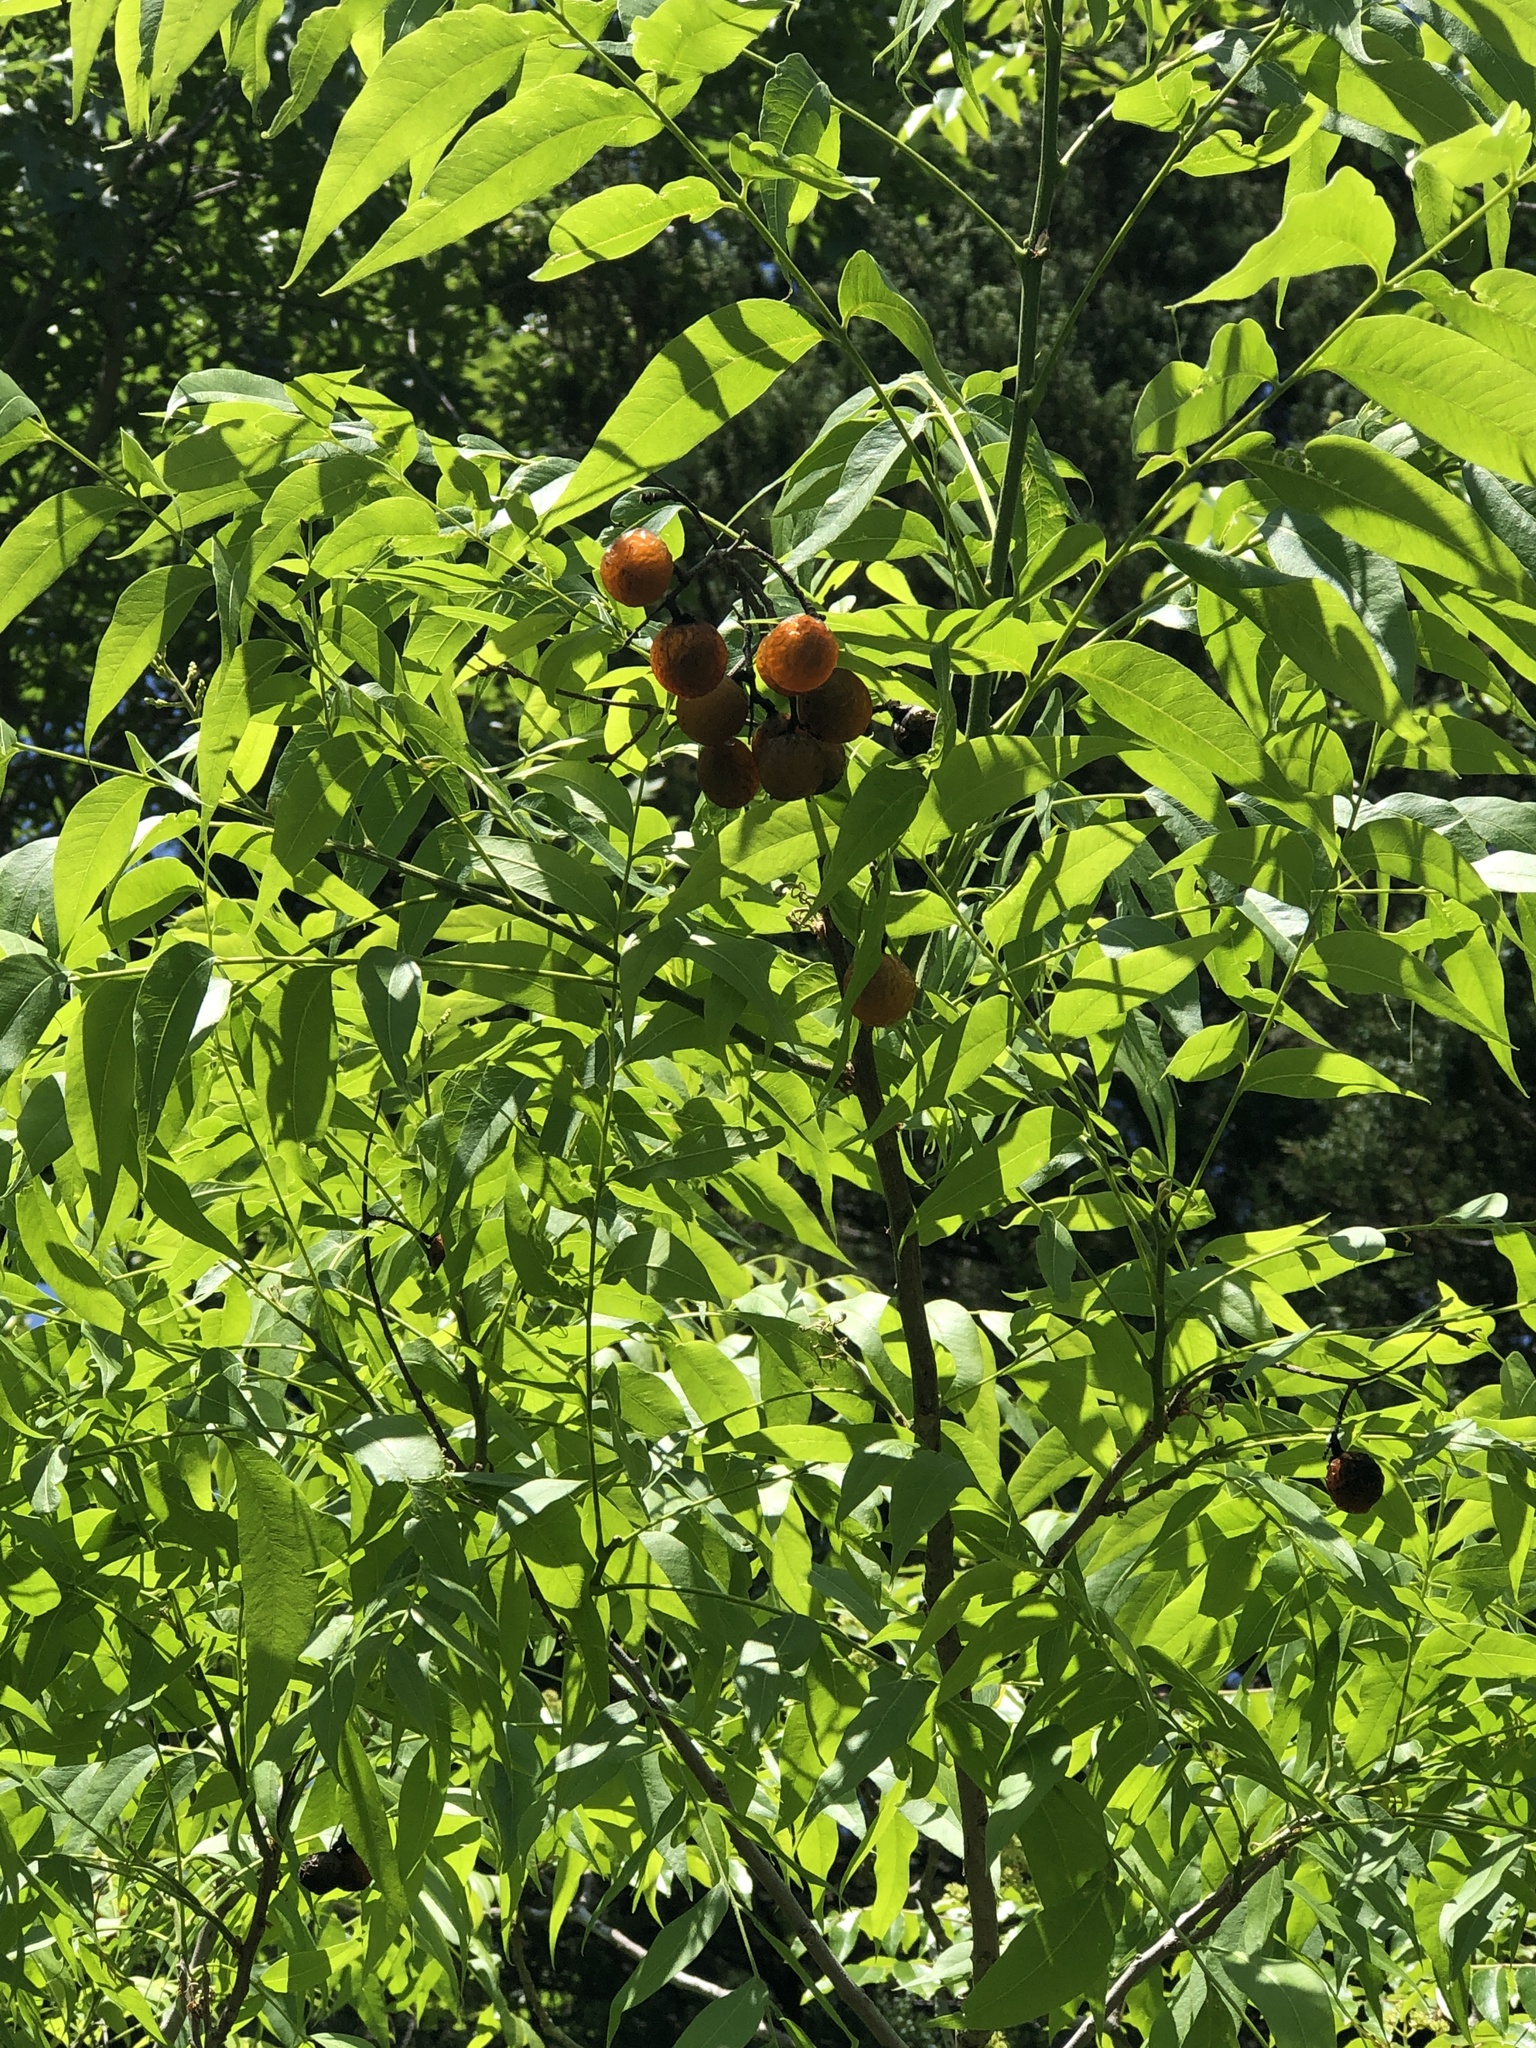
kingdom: Plantae
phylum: Tracheophyta
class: Magnoliopsida
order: Sapindales
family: Sapindaceae
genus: Sapindus
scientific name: Sapindus drummondii
